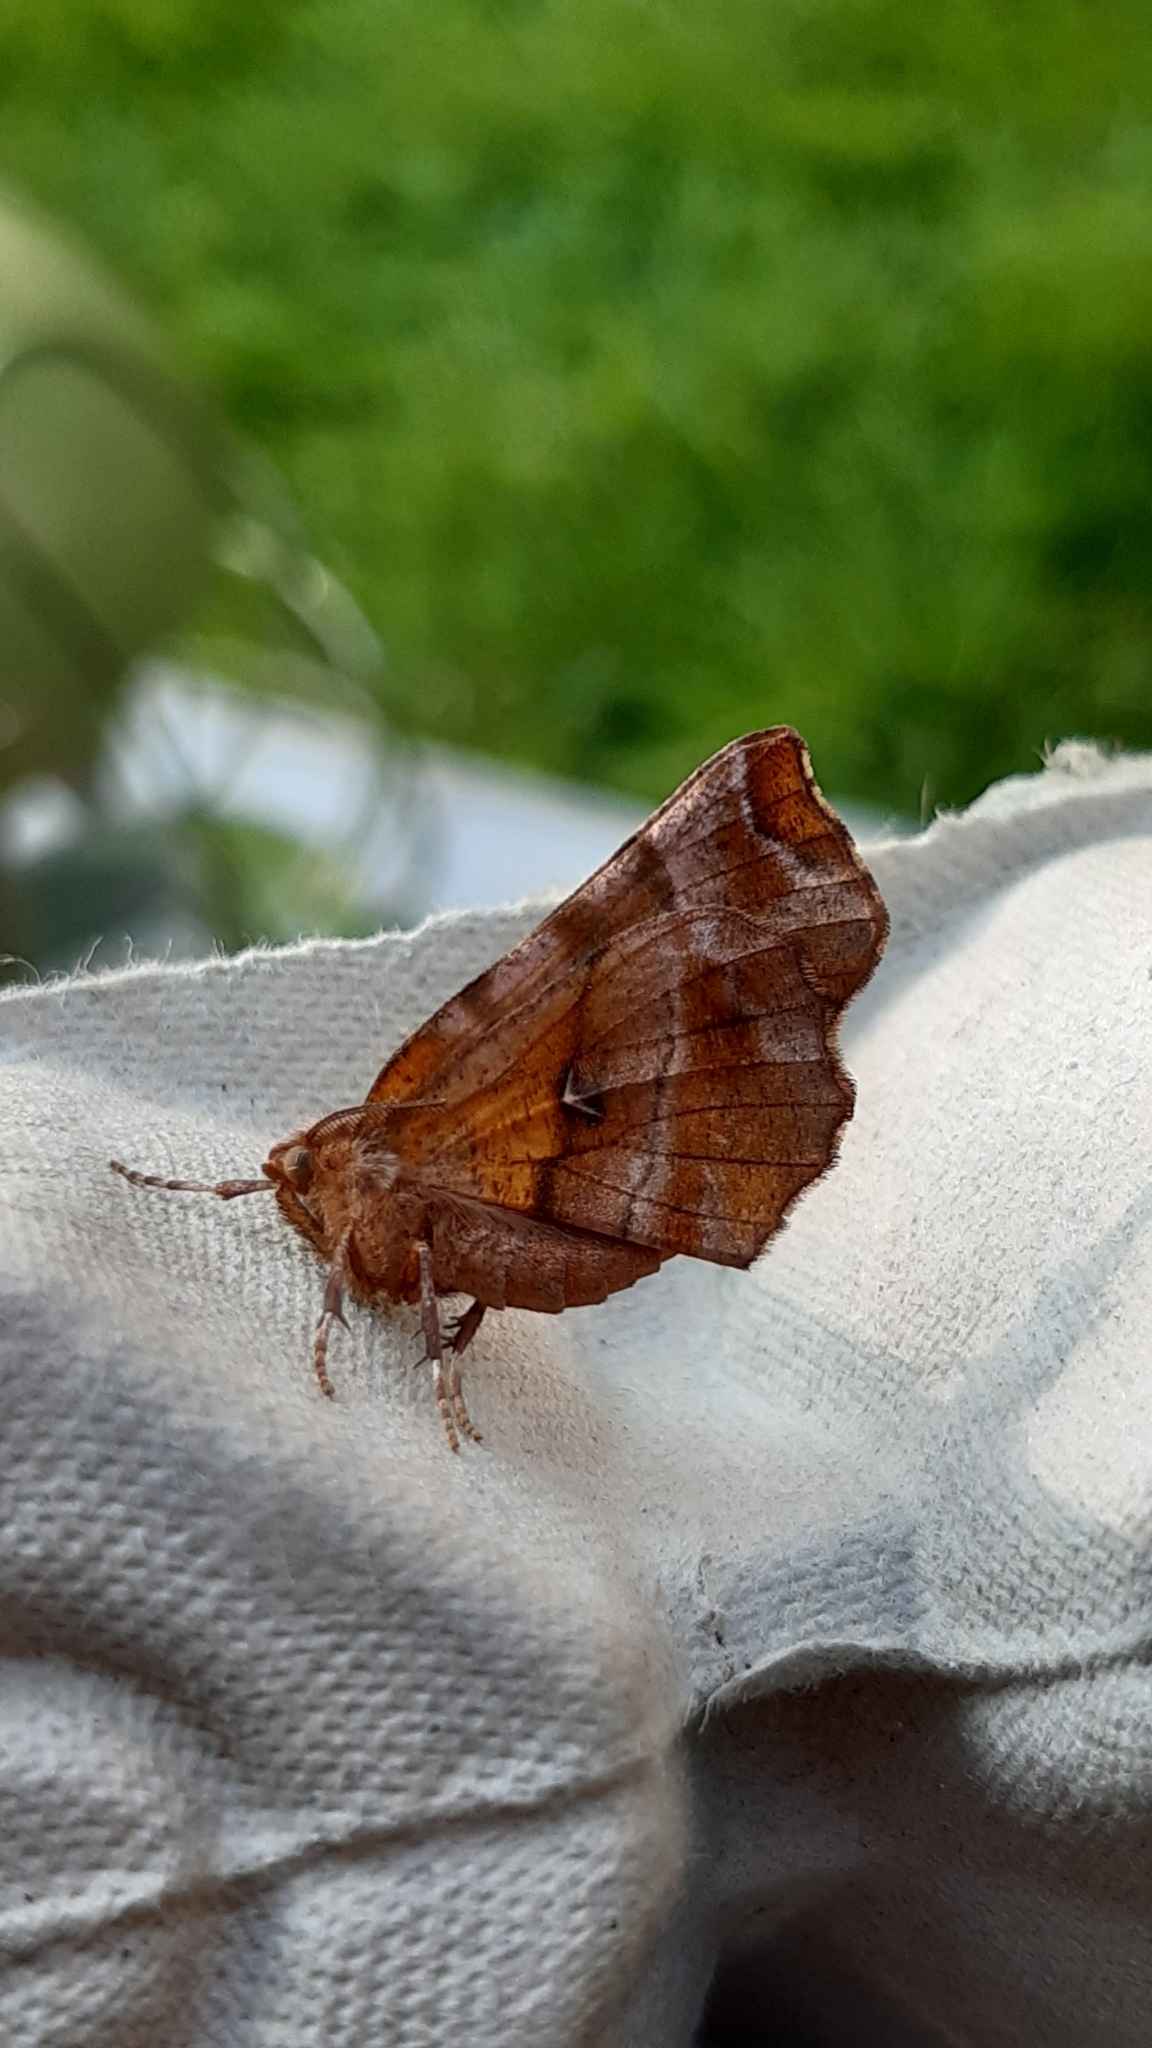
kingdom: Animalia
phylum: Arthropoda
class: Insecta
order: Lepidoptera
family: Geometridae
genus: Selenia
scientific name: Selenia dentaria
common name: Early thorn
